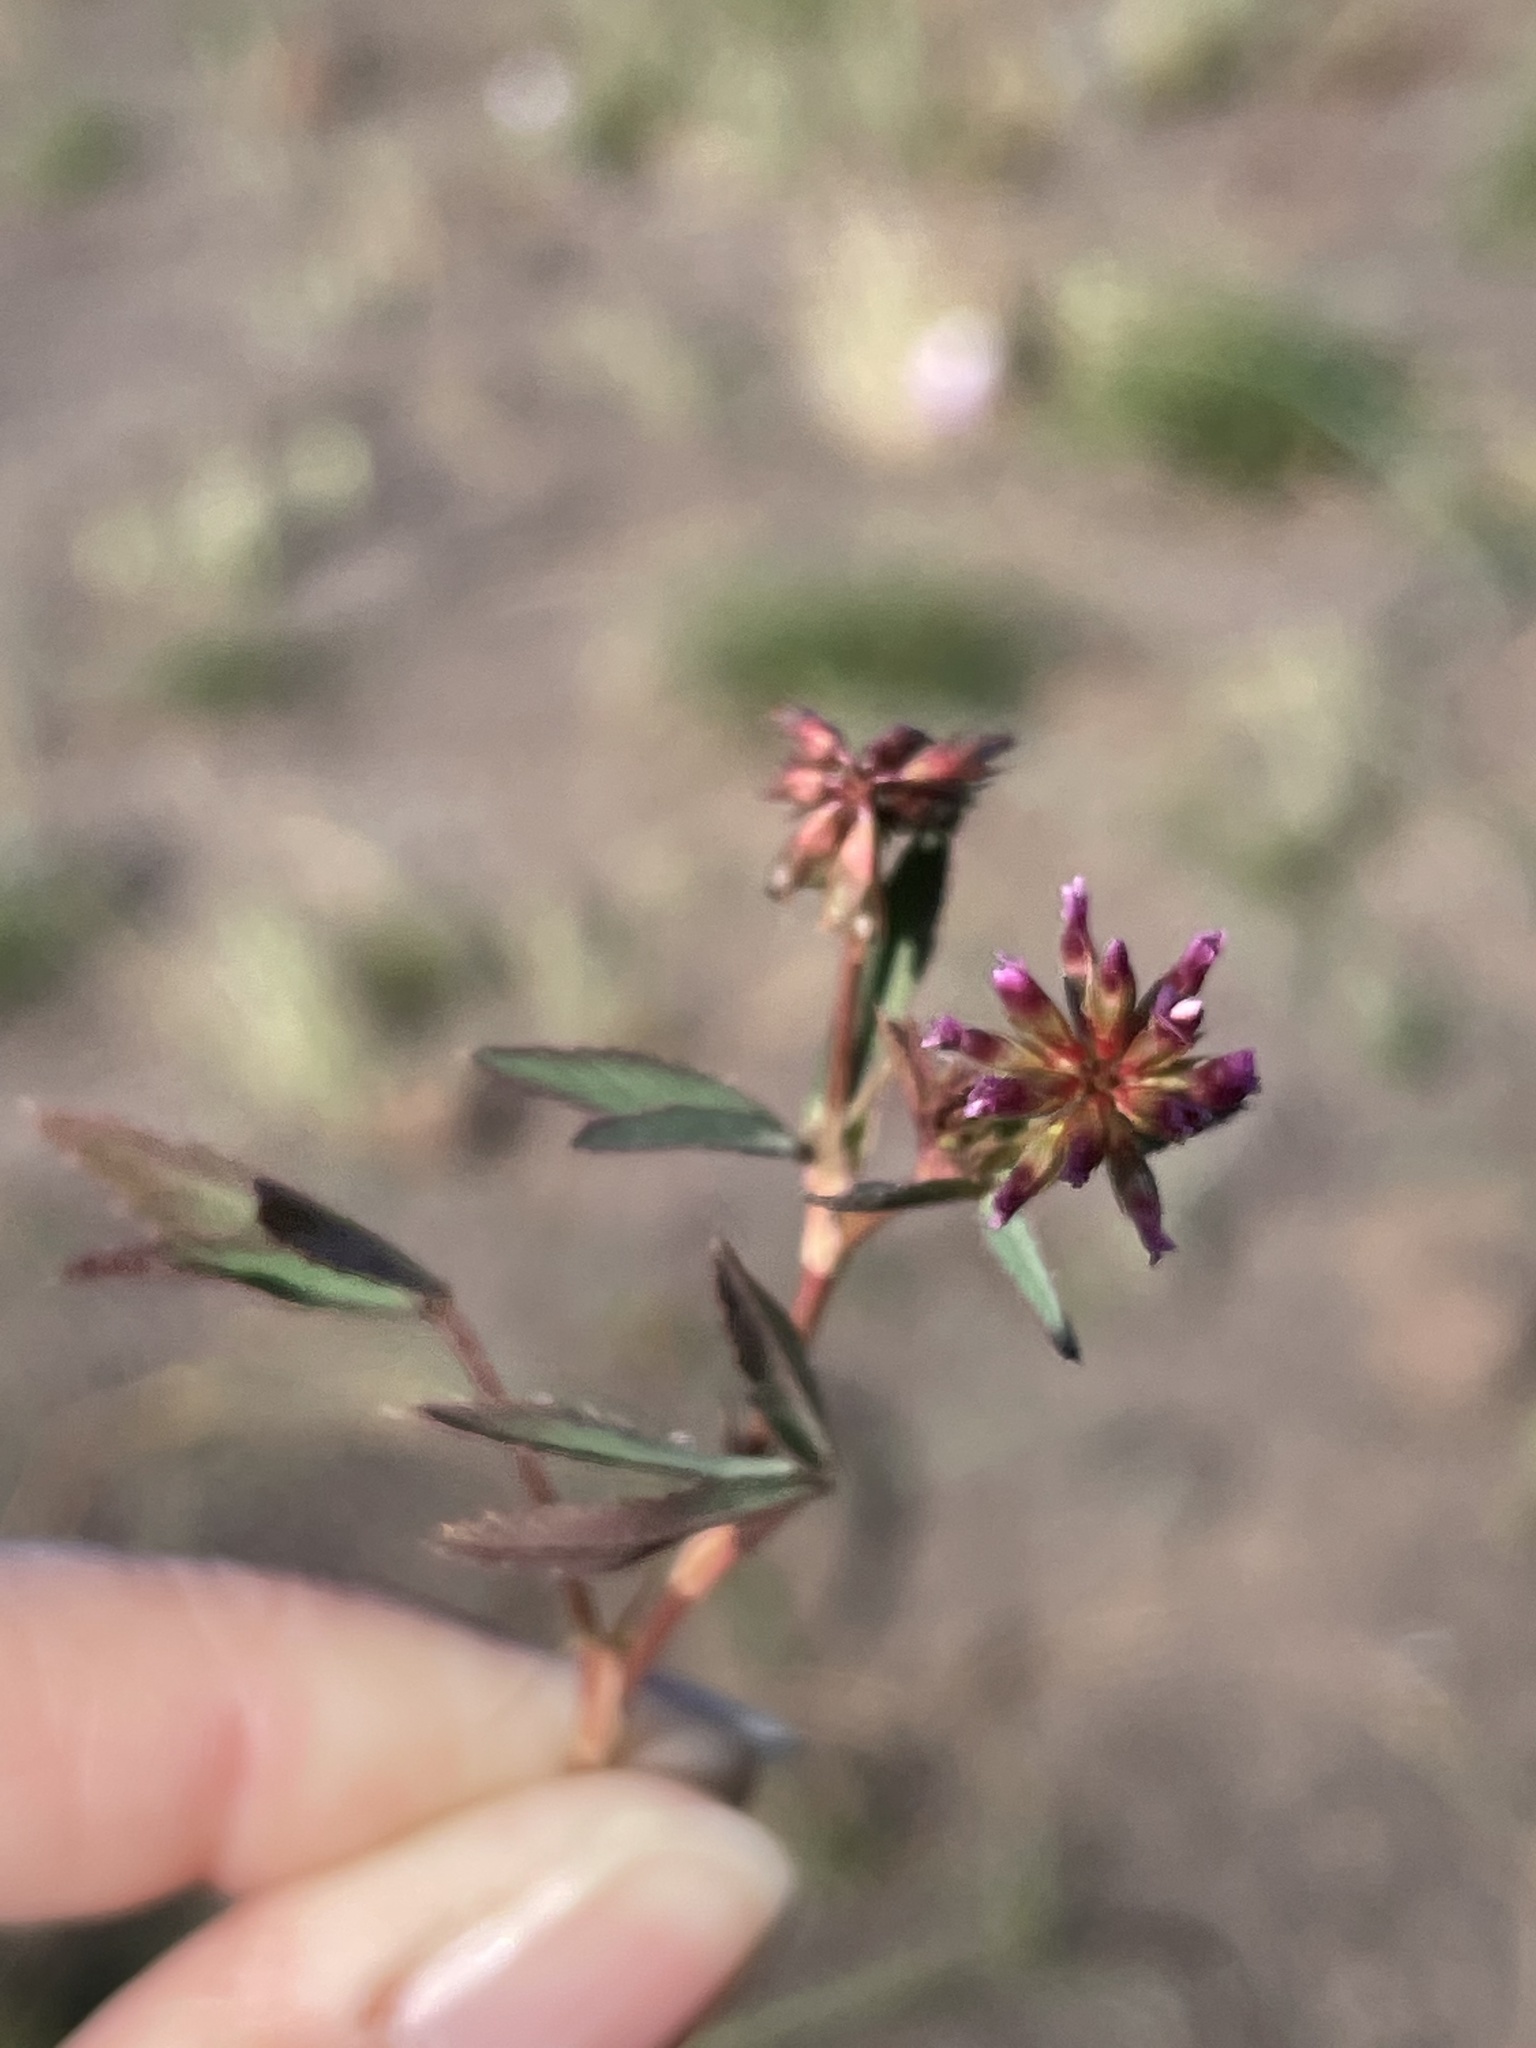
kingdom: Plantae
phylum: Tracheophyta
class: Magnoliopsida
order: Fabales
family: Fabaceae
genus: Trifolium
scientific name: Trifolium palmeri
